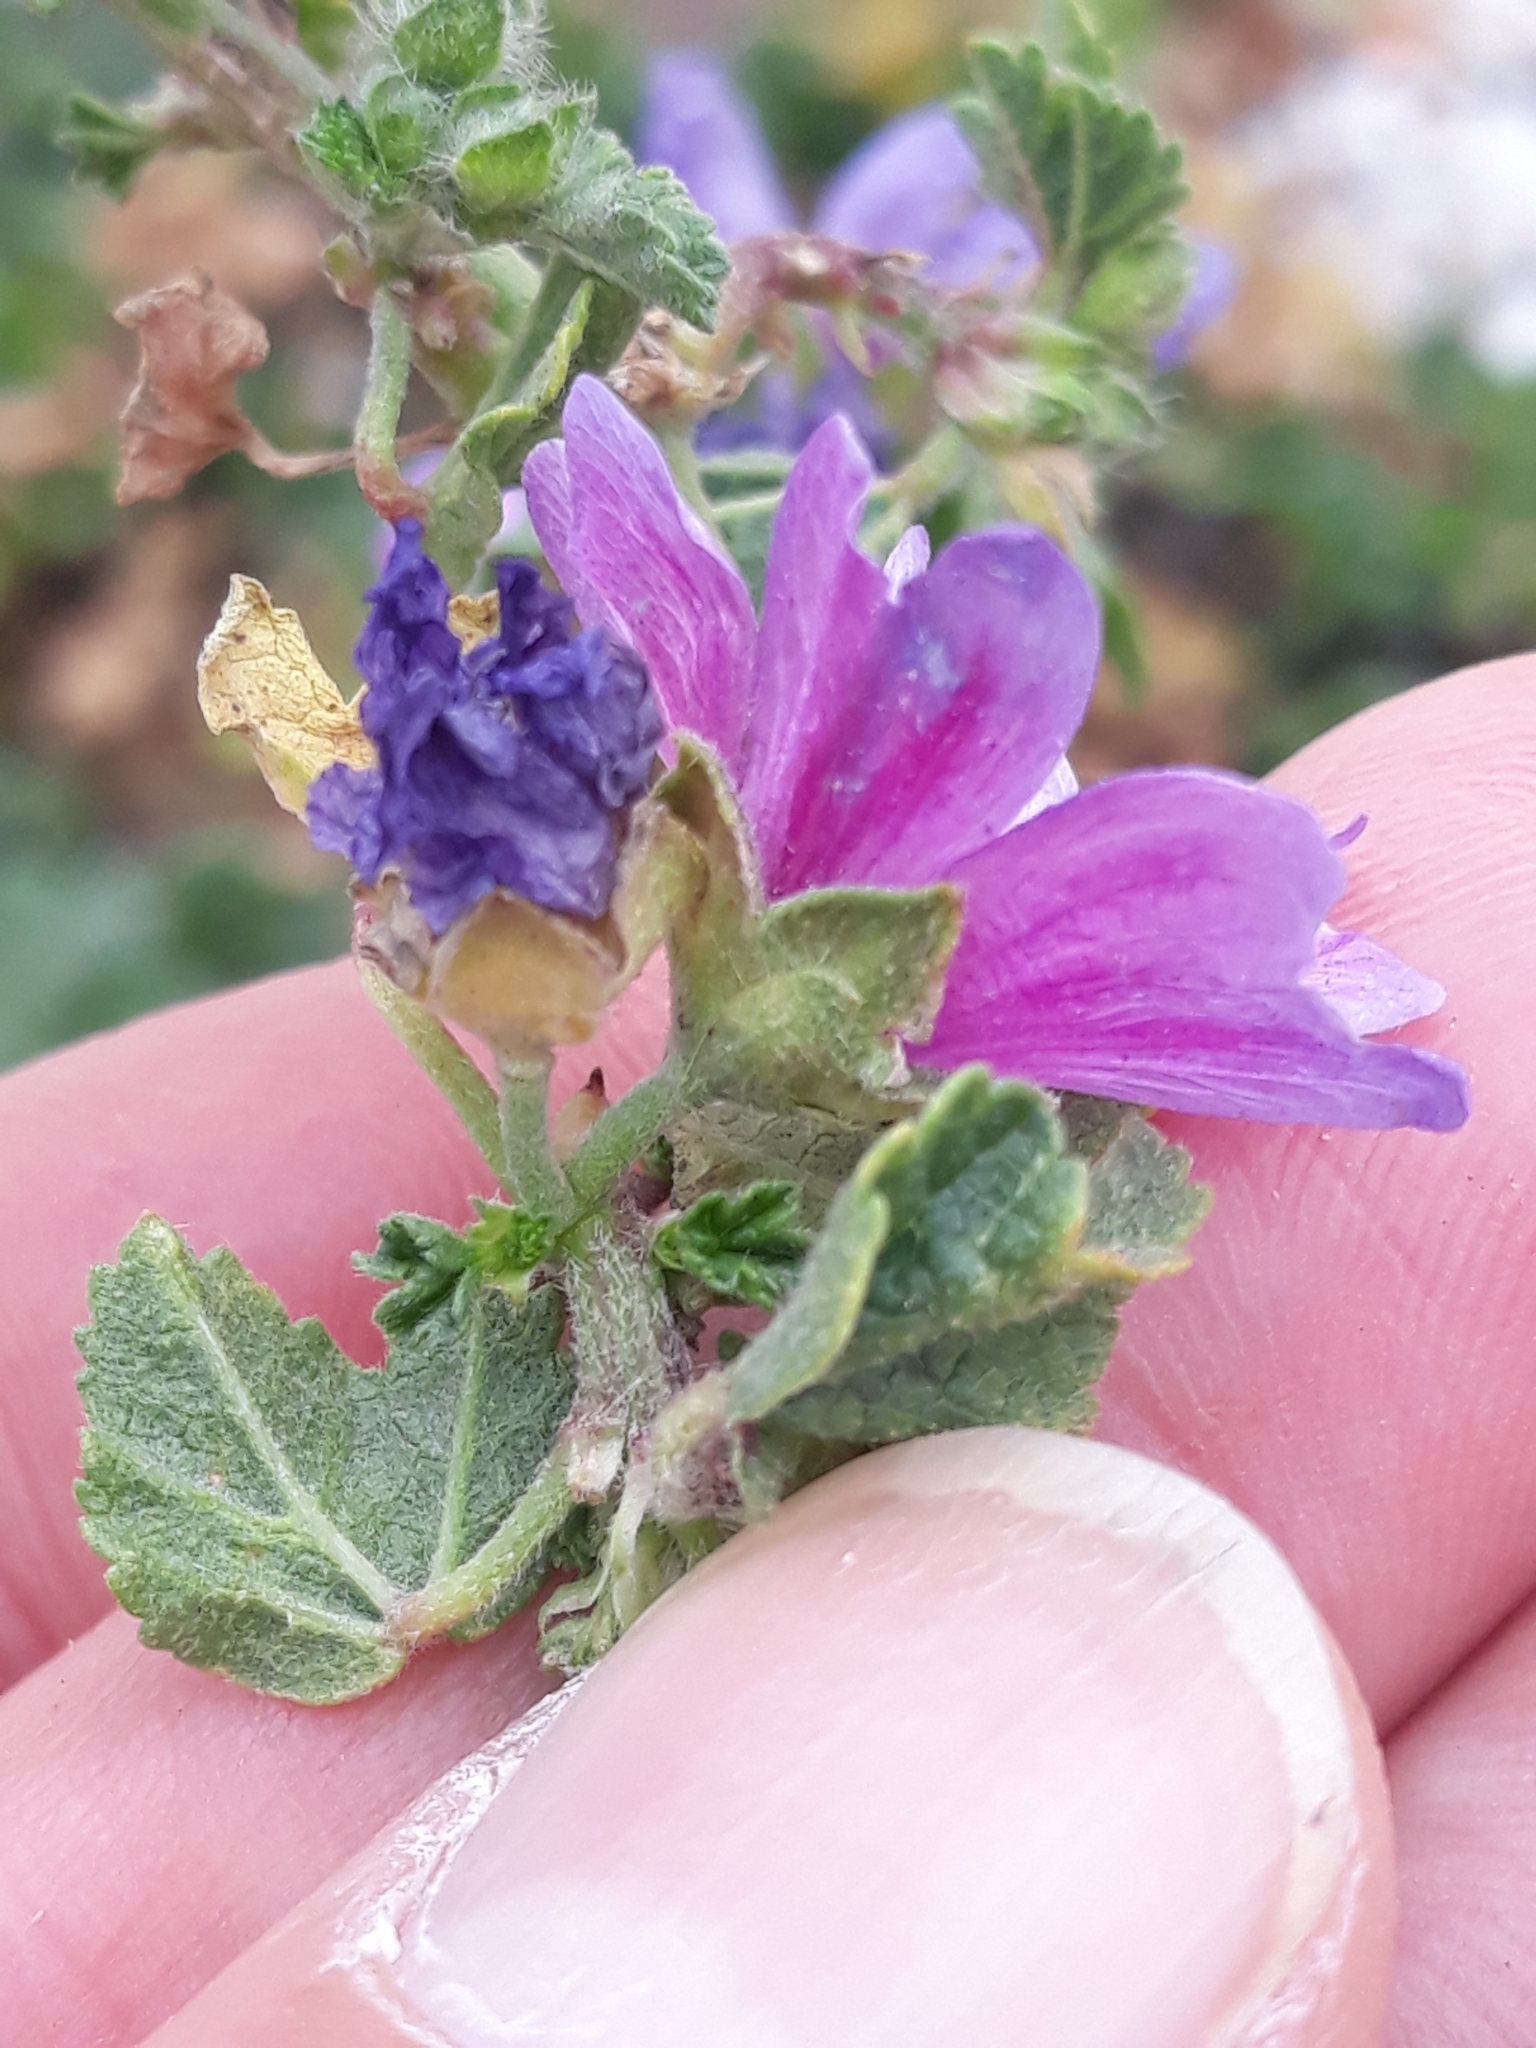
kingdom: Plantae
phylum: Tracheophyta
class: Magnoliopsida
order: Malvales
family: Malvaceae
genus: Malva
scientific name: Malva sylvestris
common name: Common mallow
